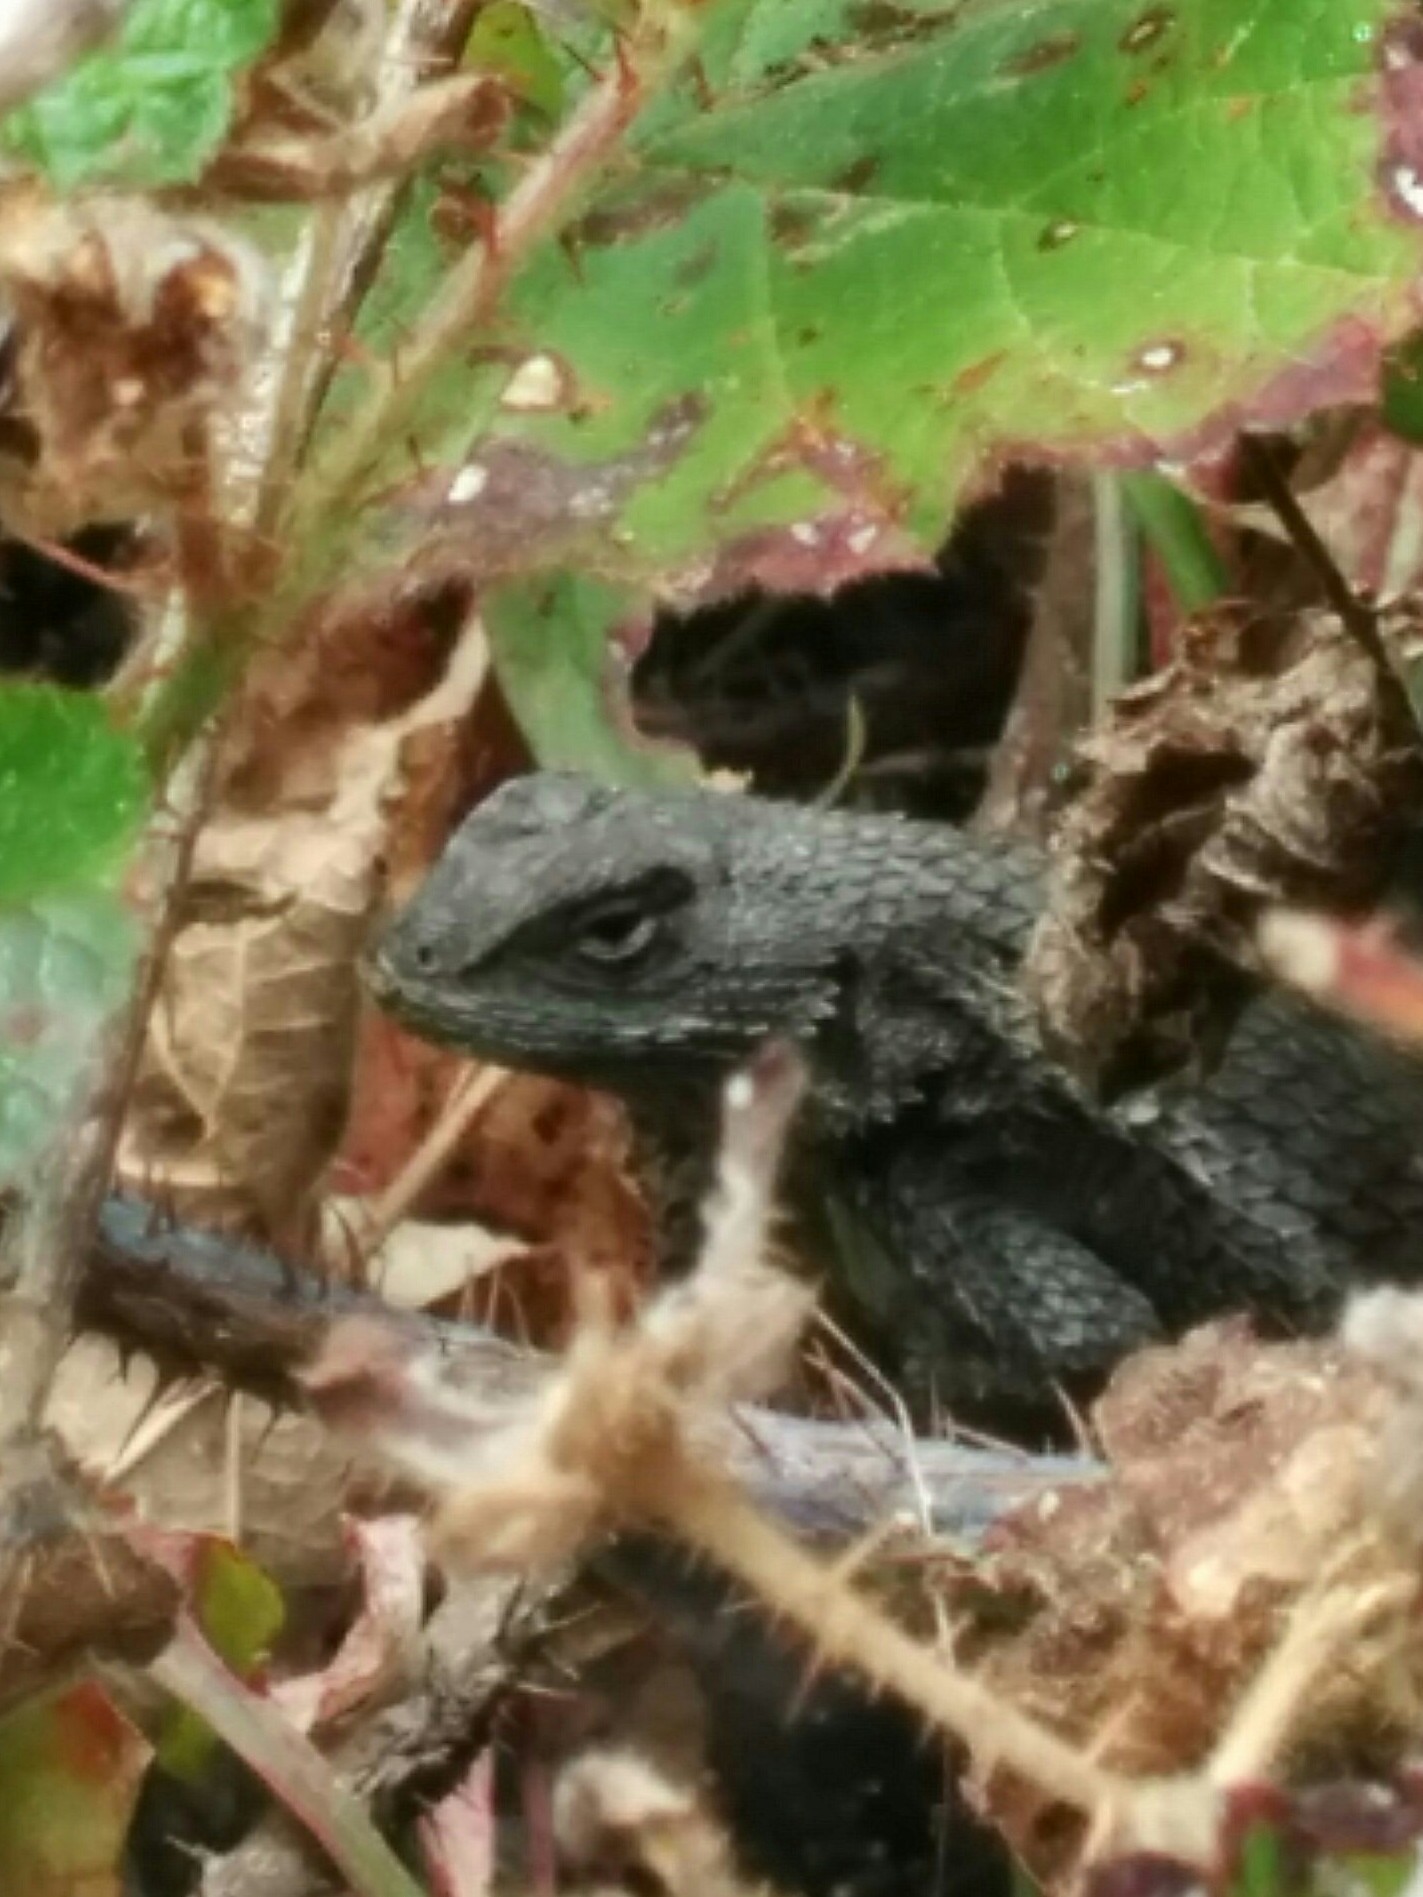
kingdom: Animalia
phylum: Chordata
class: Squamata
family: Phrynosomatidae
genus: Sceloporus
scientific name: Sceloporus occidentalis
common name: Western fence lizard
